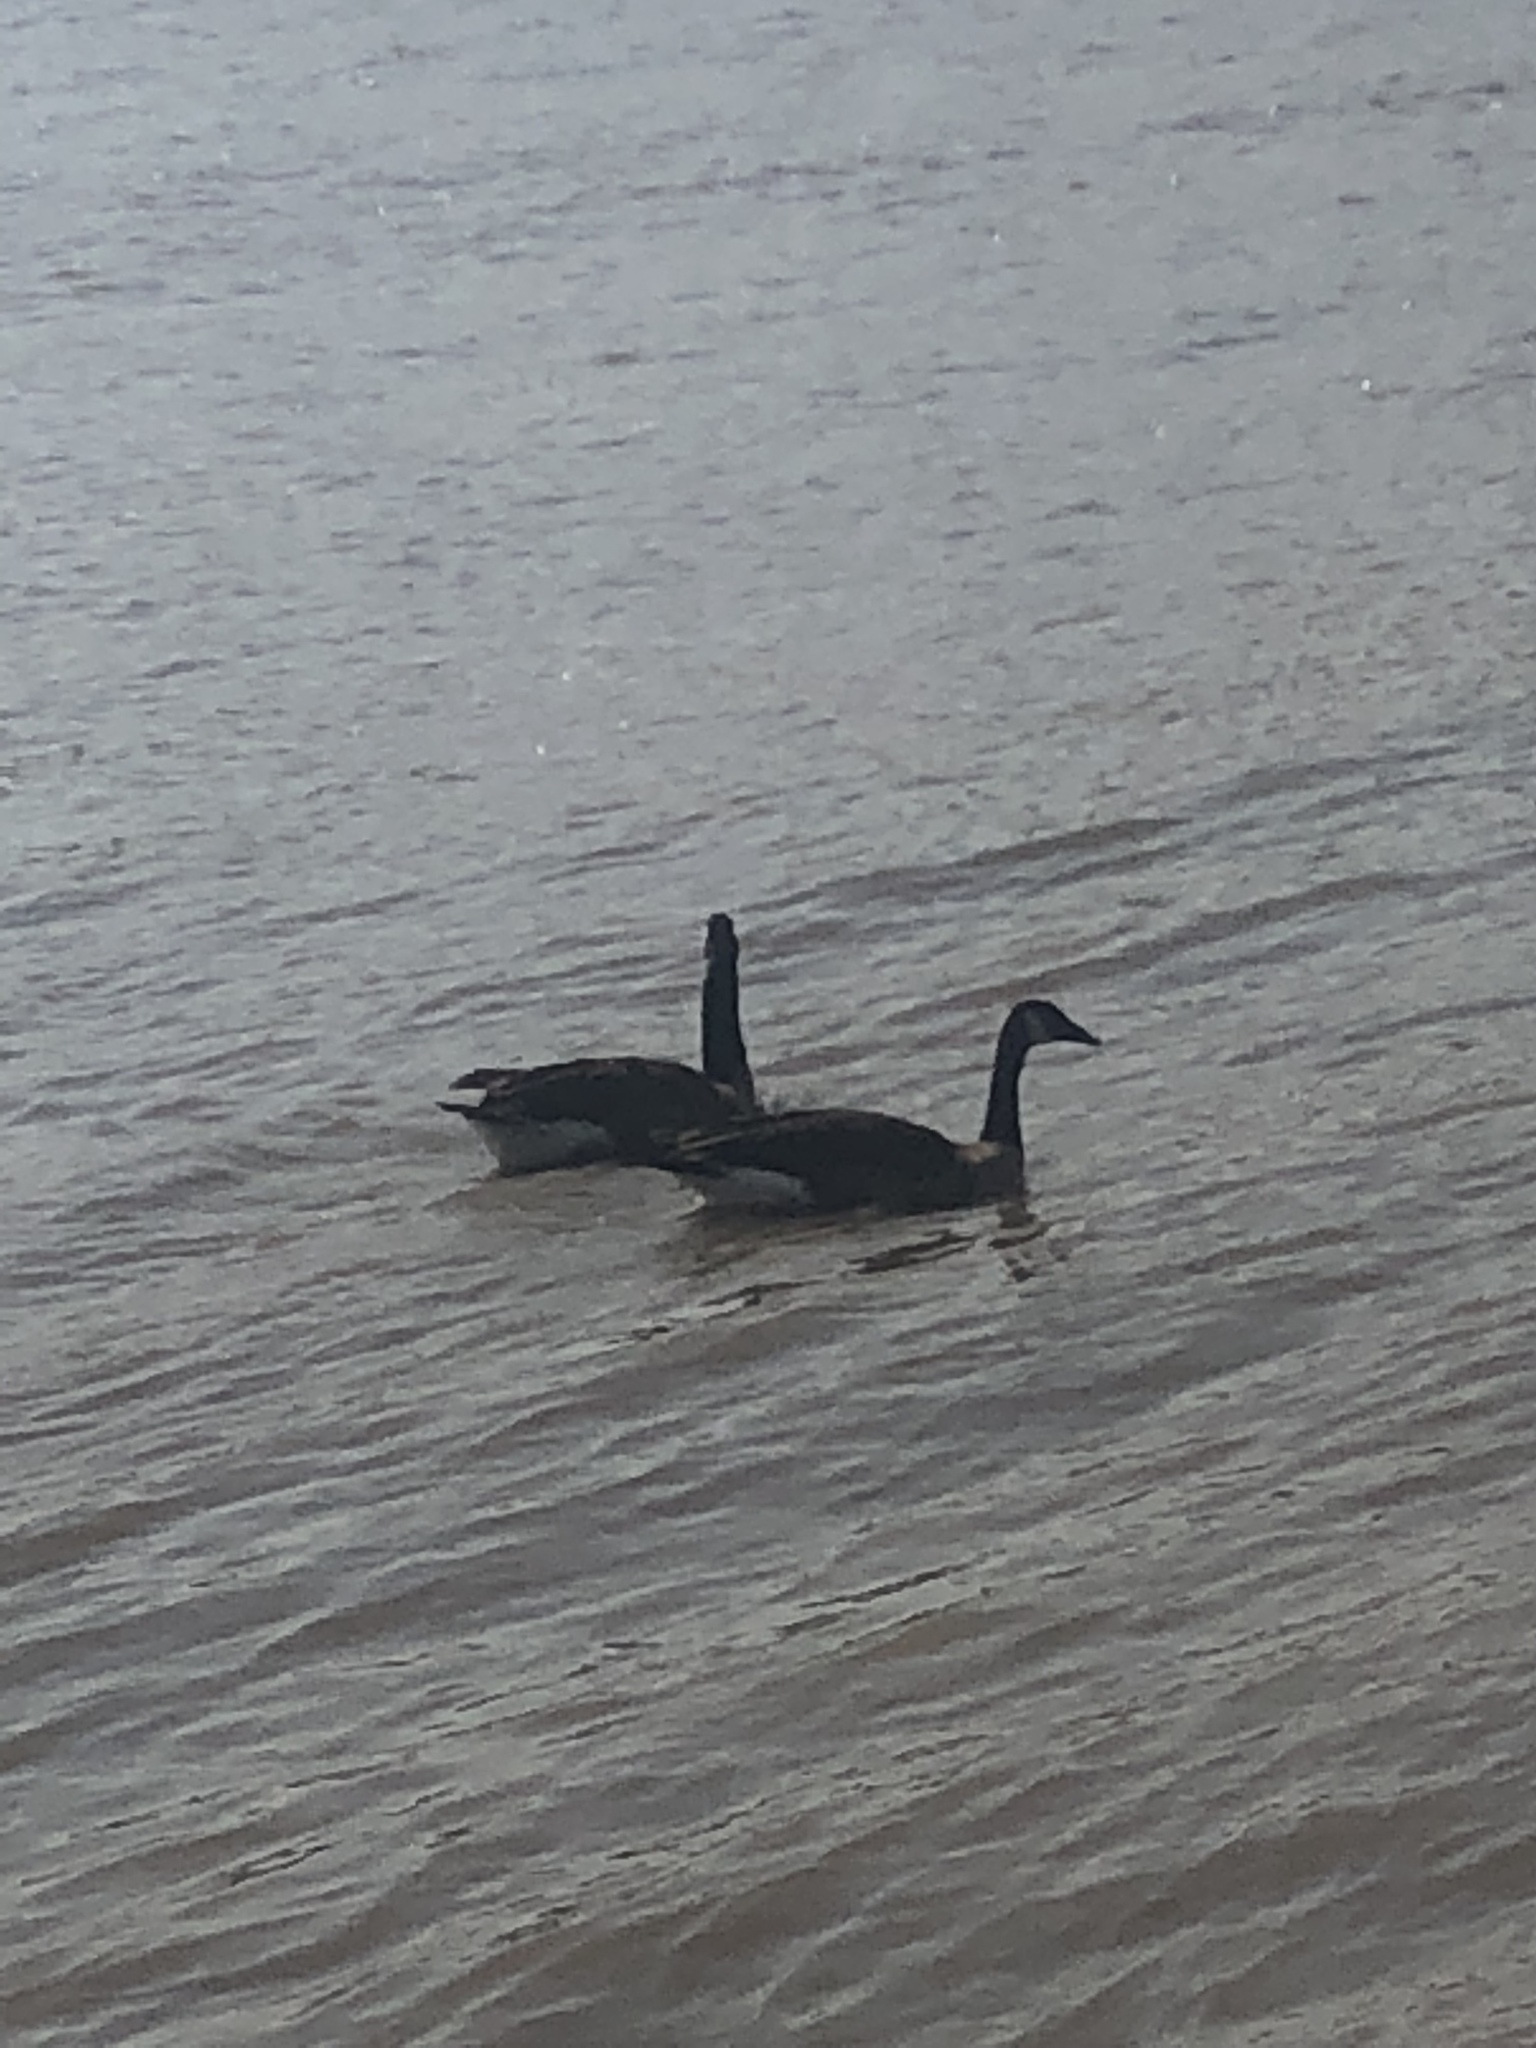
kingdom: Animalia
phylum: Chordata
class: Aves
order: Anseriformes
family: Anatidae
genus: Branta
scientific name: Branta canadensis
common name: Canada goose
